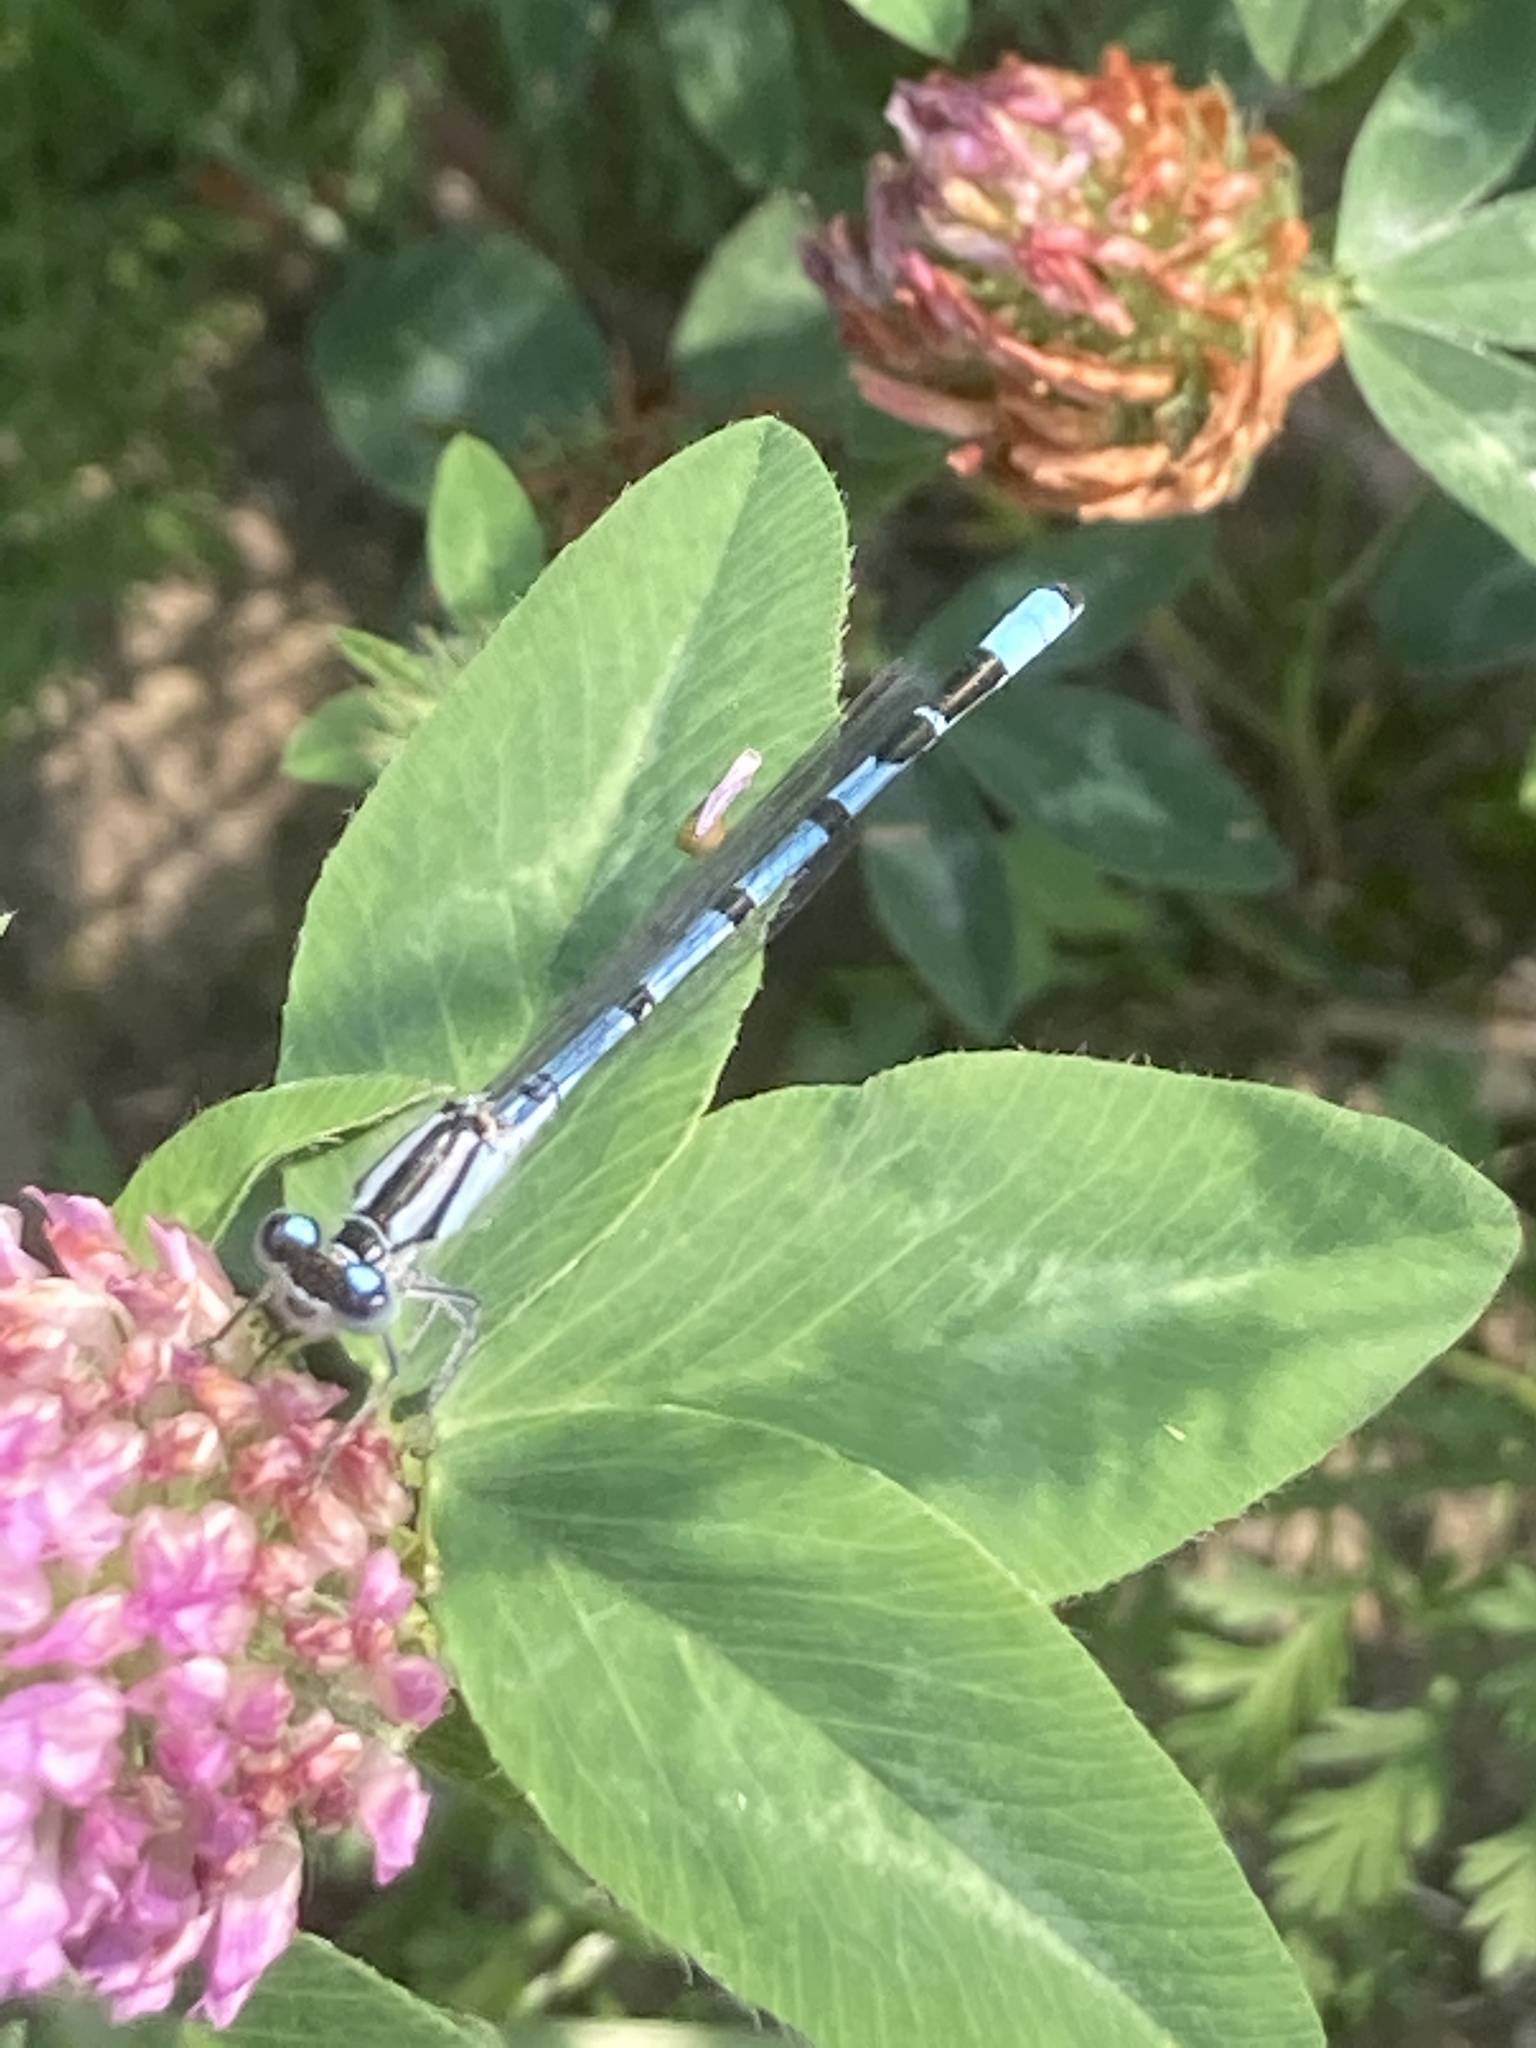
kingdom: Animalia
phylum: Arthropoda
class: Insecta
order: Odonata
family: Coenagrionidae
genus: Enallagma
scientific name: Enallagma cyathigerum
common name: Common blue damselfly
